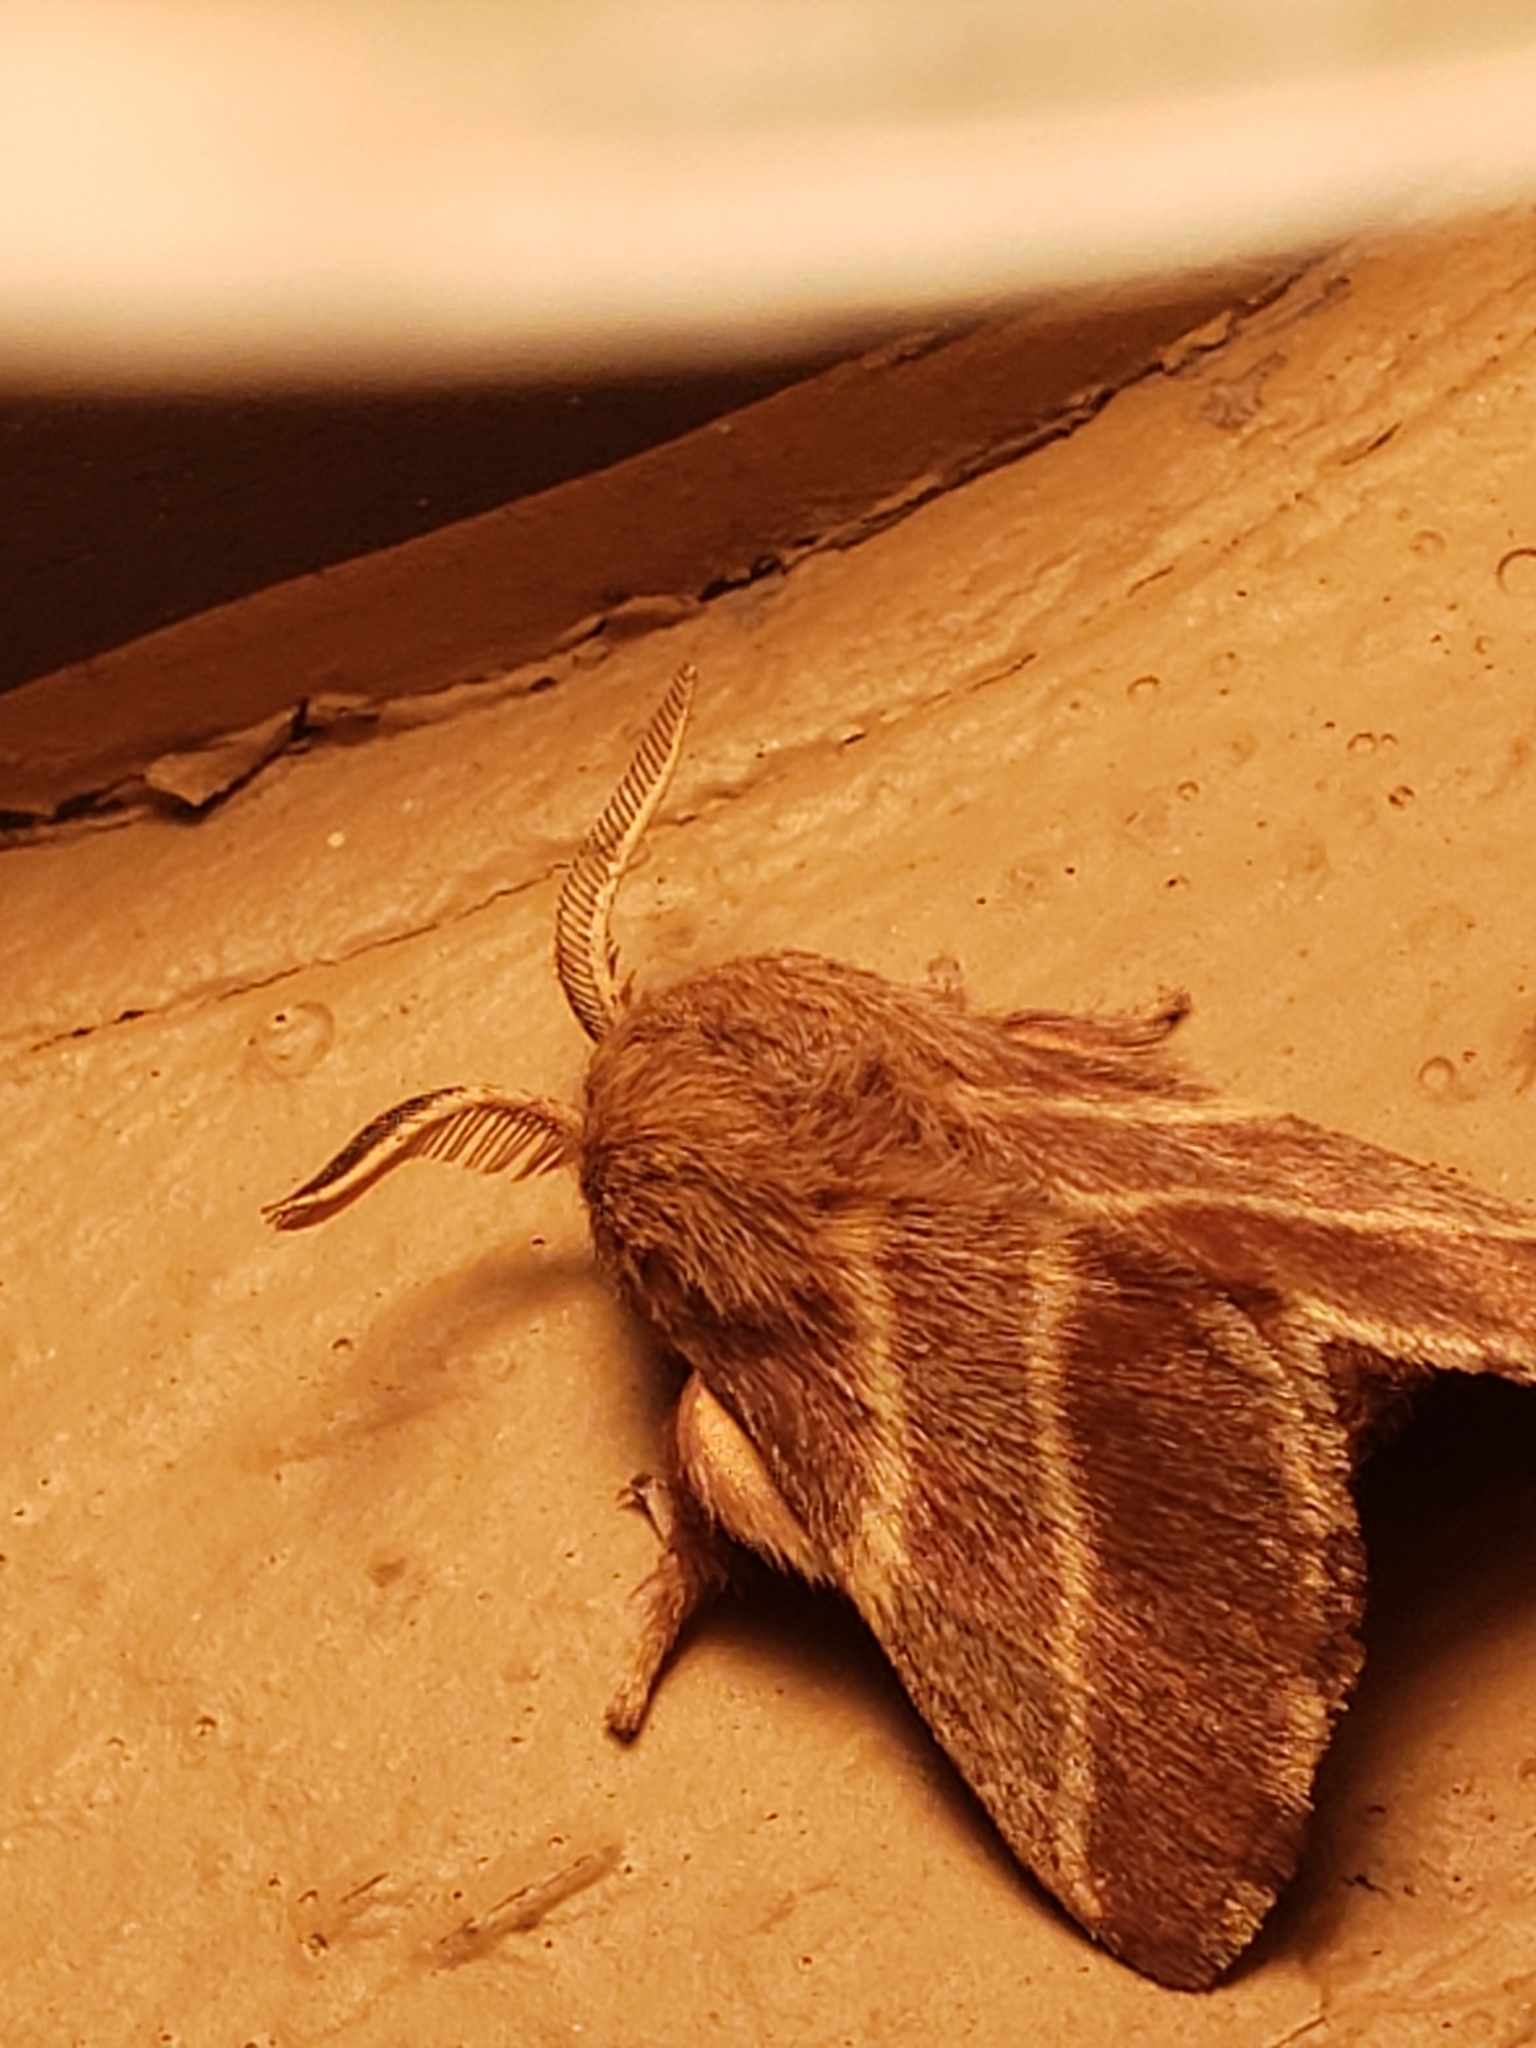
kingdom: Animalia
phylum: Arthropoda
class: Insecta
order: Lepidoptera
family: Lasiocampidae
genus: Malacosoma
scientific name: Malacosoma americana
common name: Eastern tent caterpillar moth
